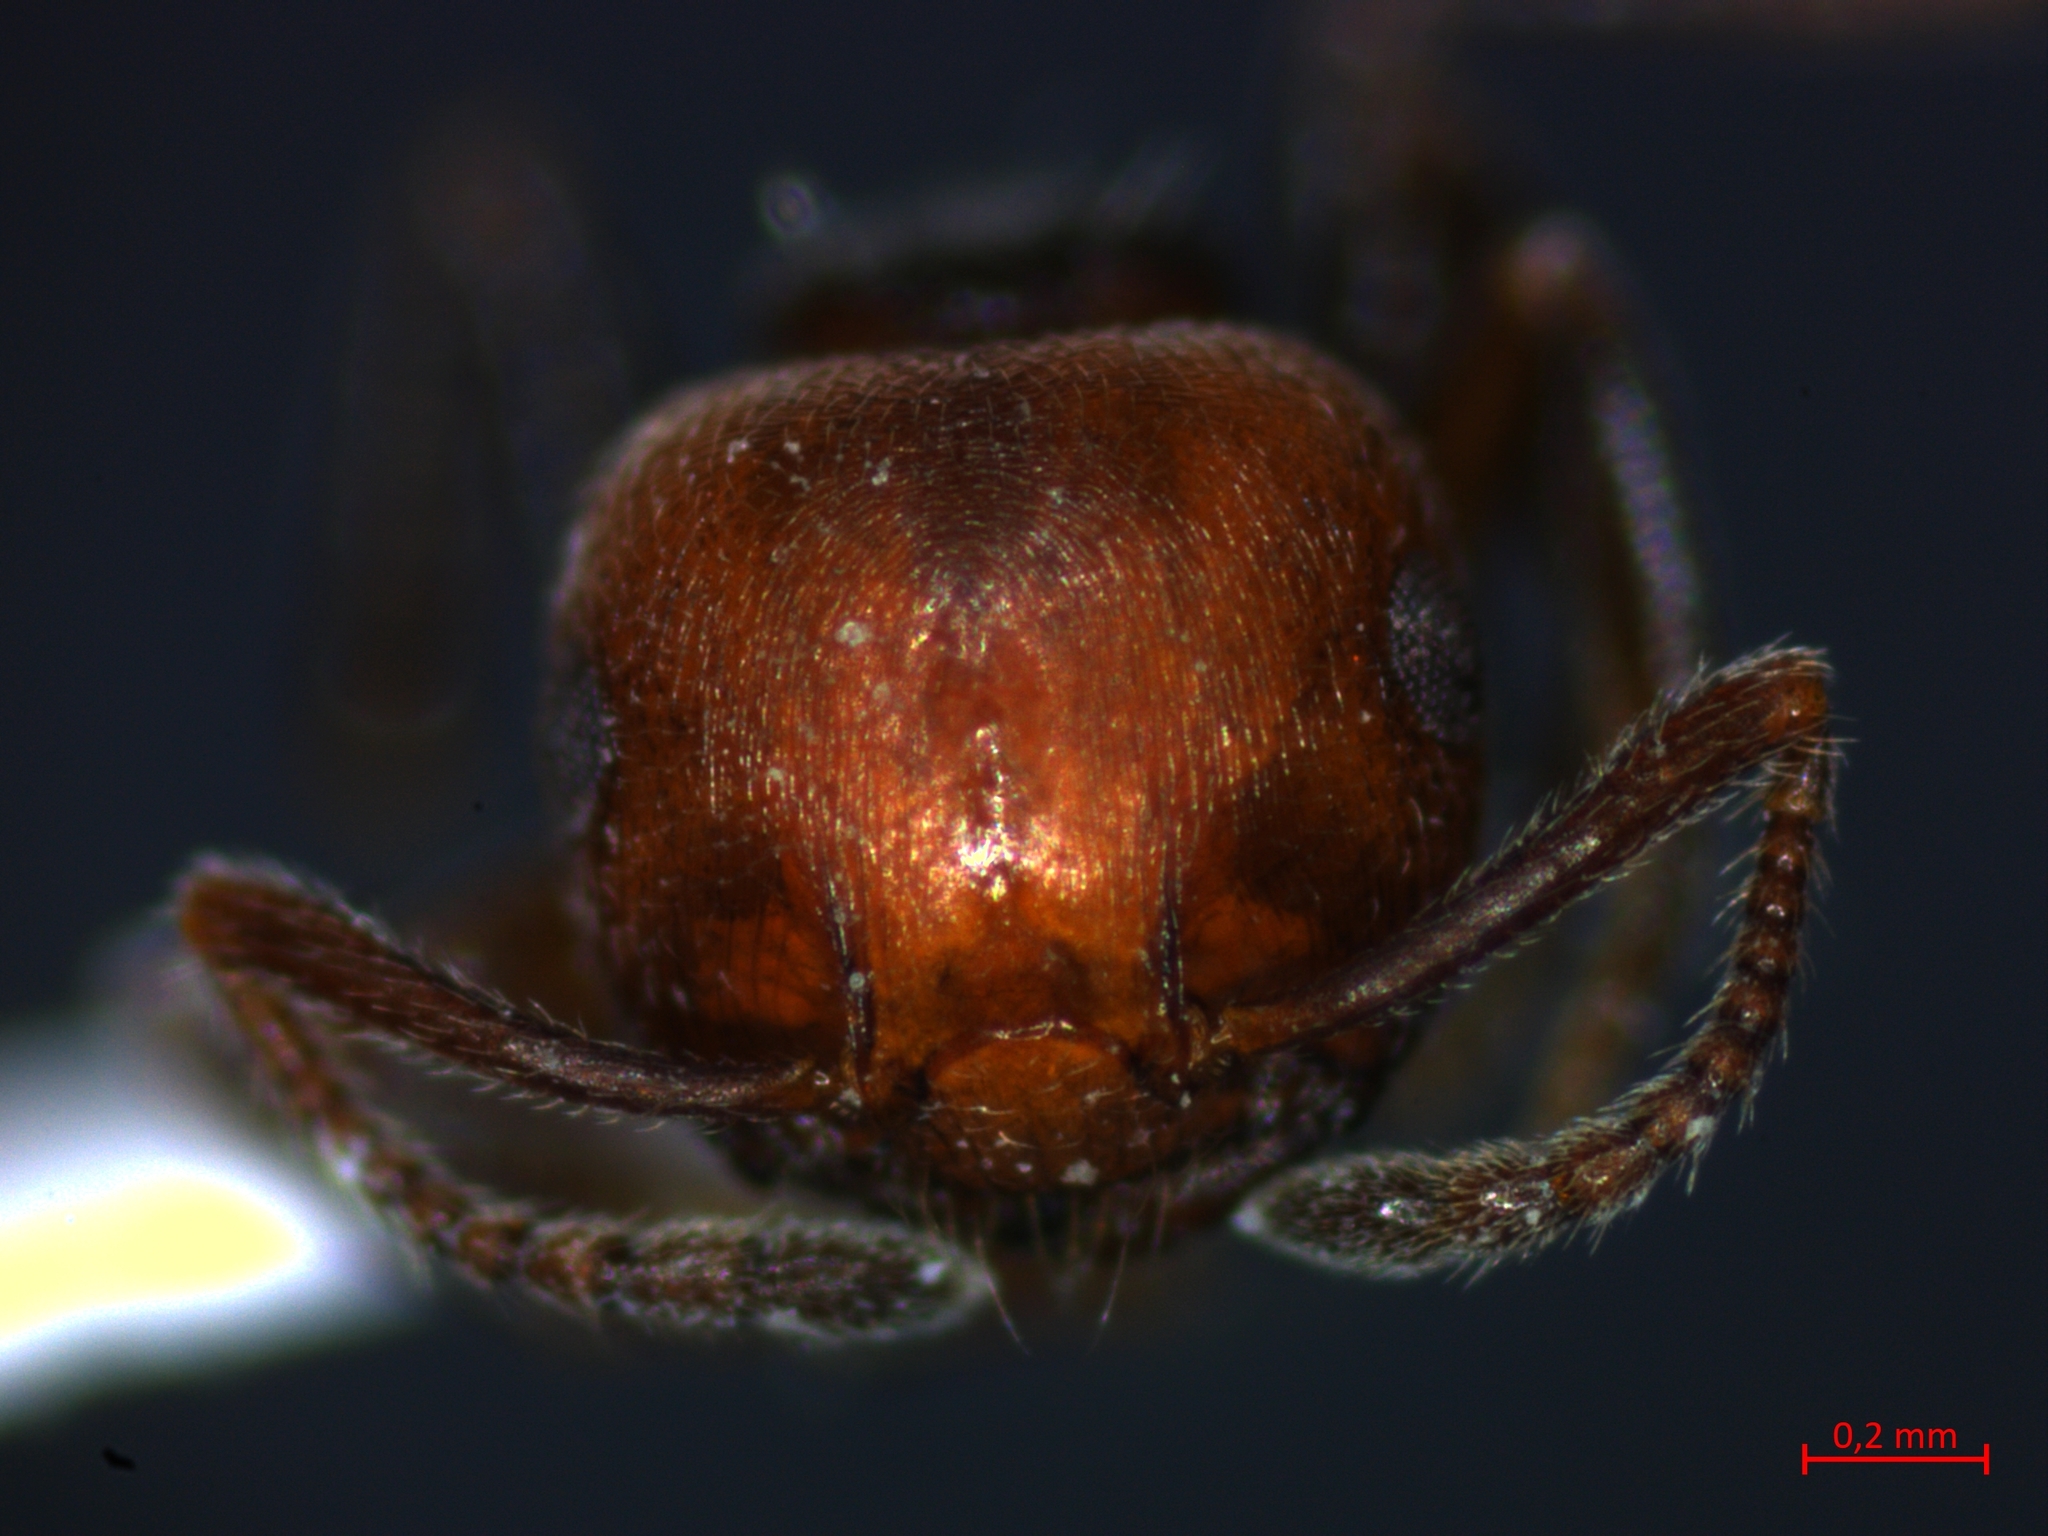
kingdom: Animalia
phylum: Arthropoda
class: Insecta
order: Hymenoptera
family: Formicidae
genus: Crematogaster
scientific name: Crematogaster scutellaris
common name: Fourmi du liège
